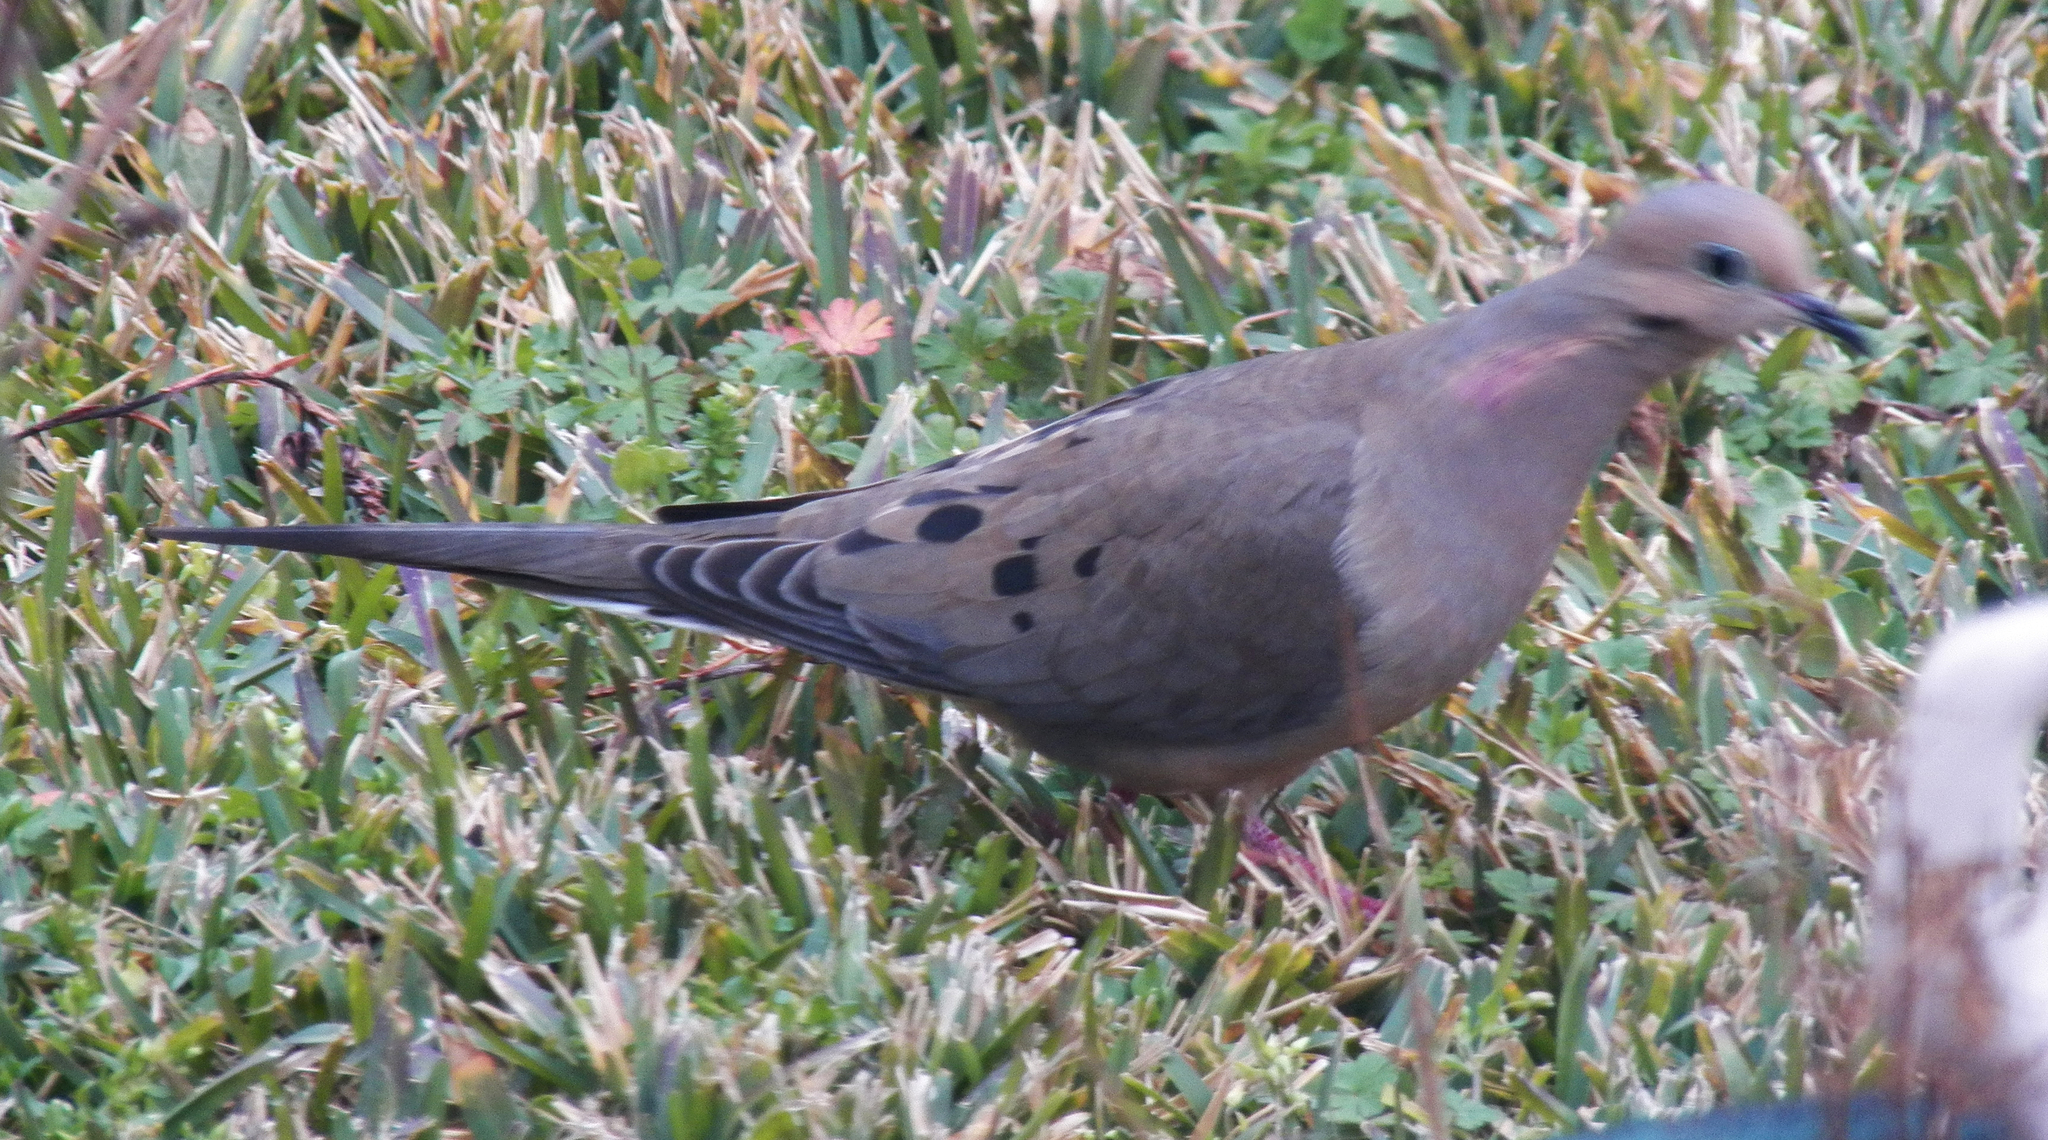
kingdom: Animalia
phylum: Chordata
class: Aves
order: Columbiformes
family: Columbidae
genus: Zenaida
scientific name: Zenaida macroura
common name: Mourning dove
